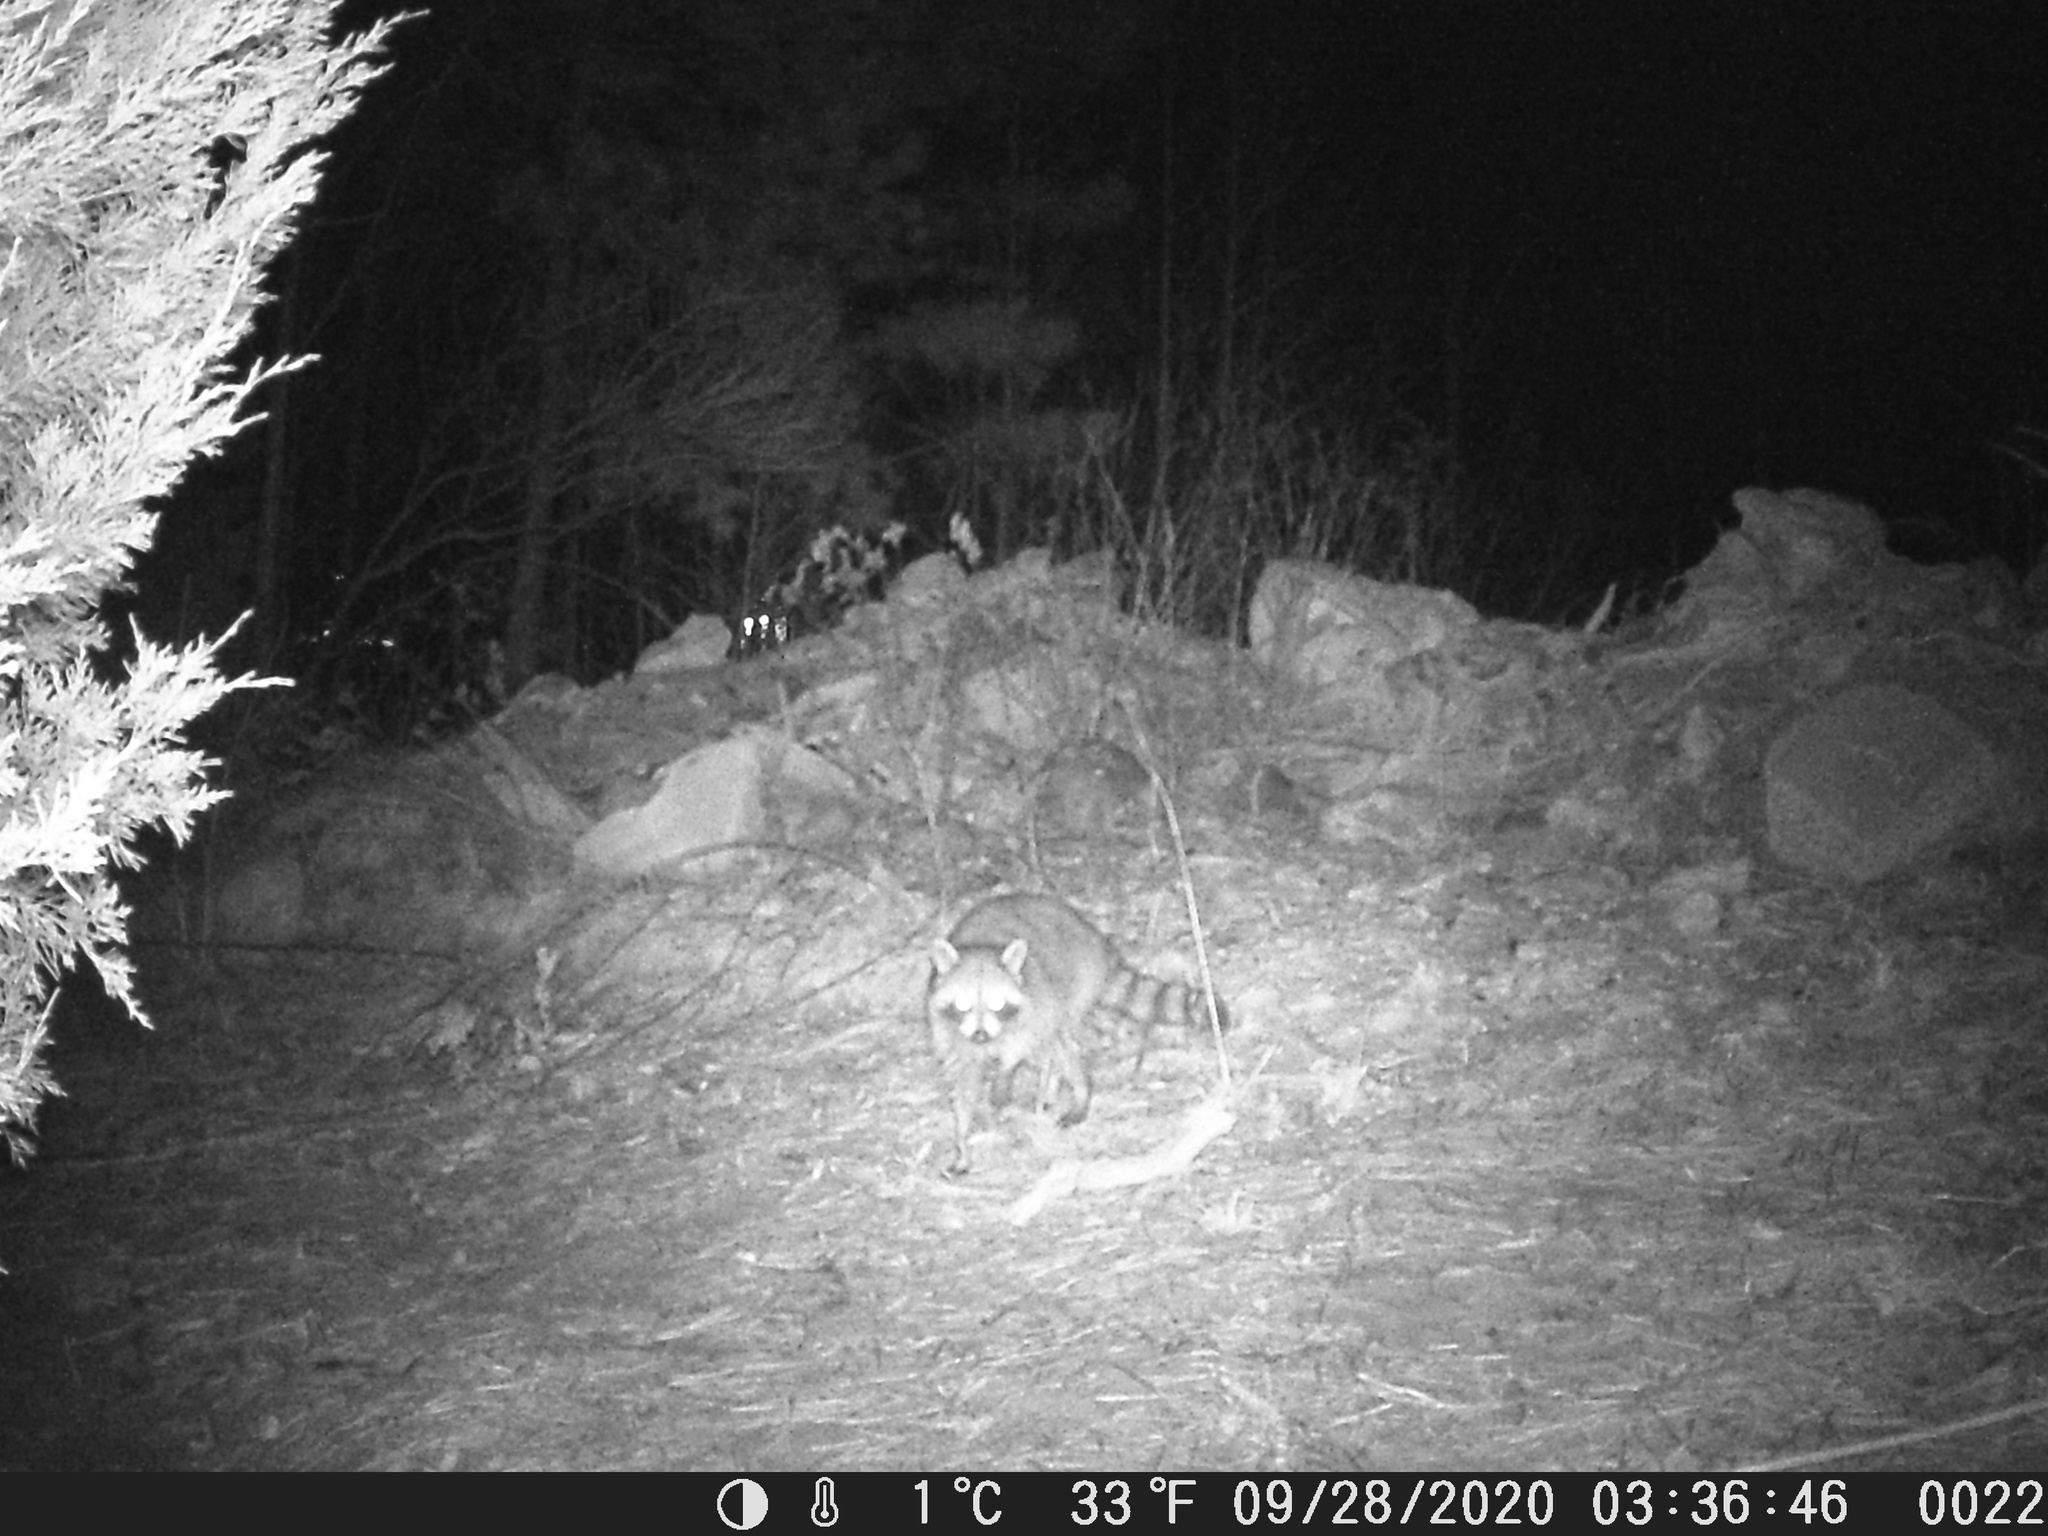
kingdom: Animalia
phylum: Chordata
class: Mammalia
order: Carnivora
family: Procyonidae
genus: Procyon
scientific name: Procyon lotor
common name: Raccoon
